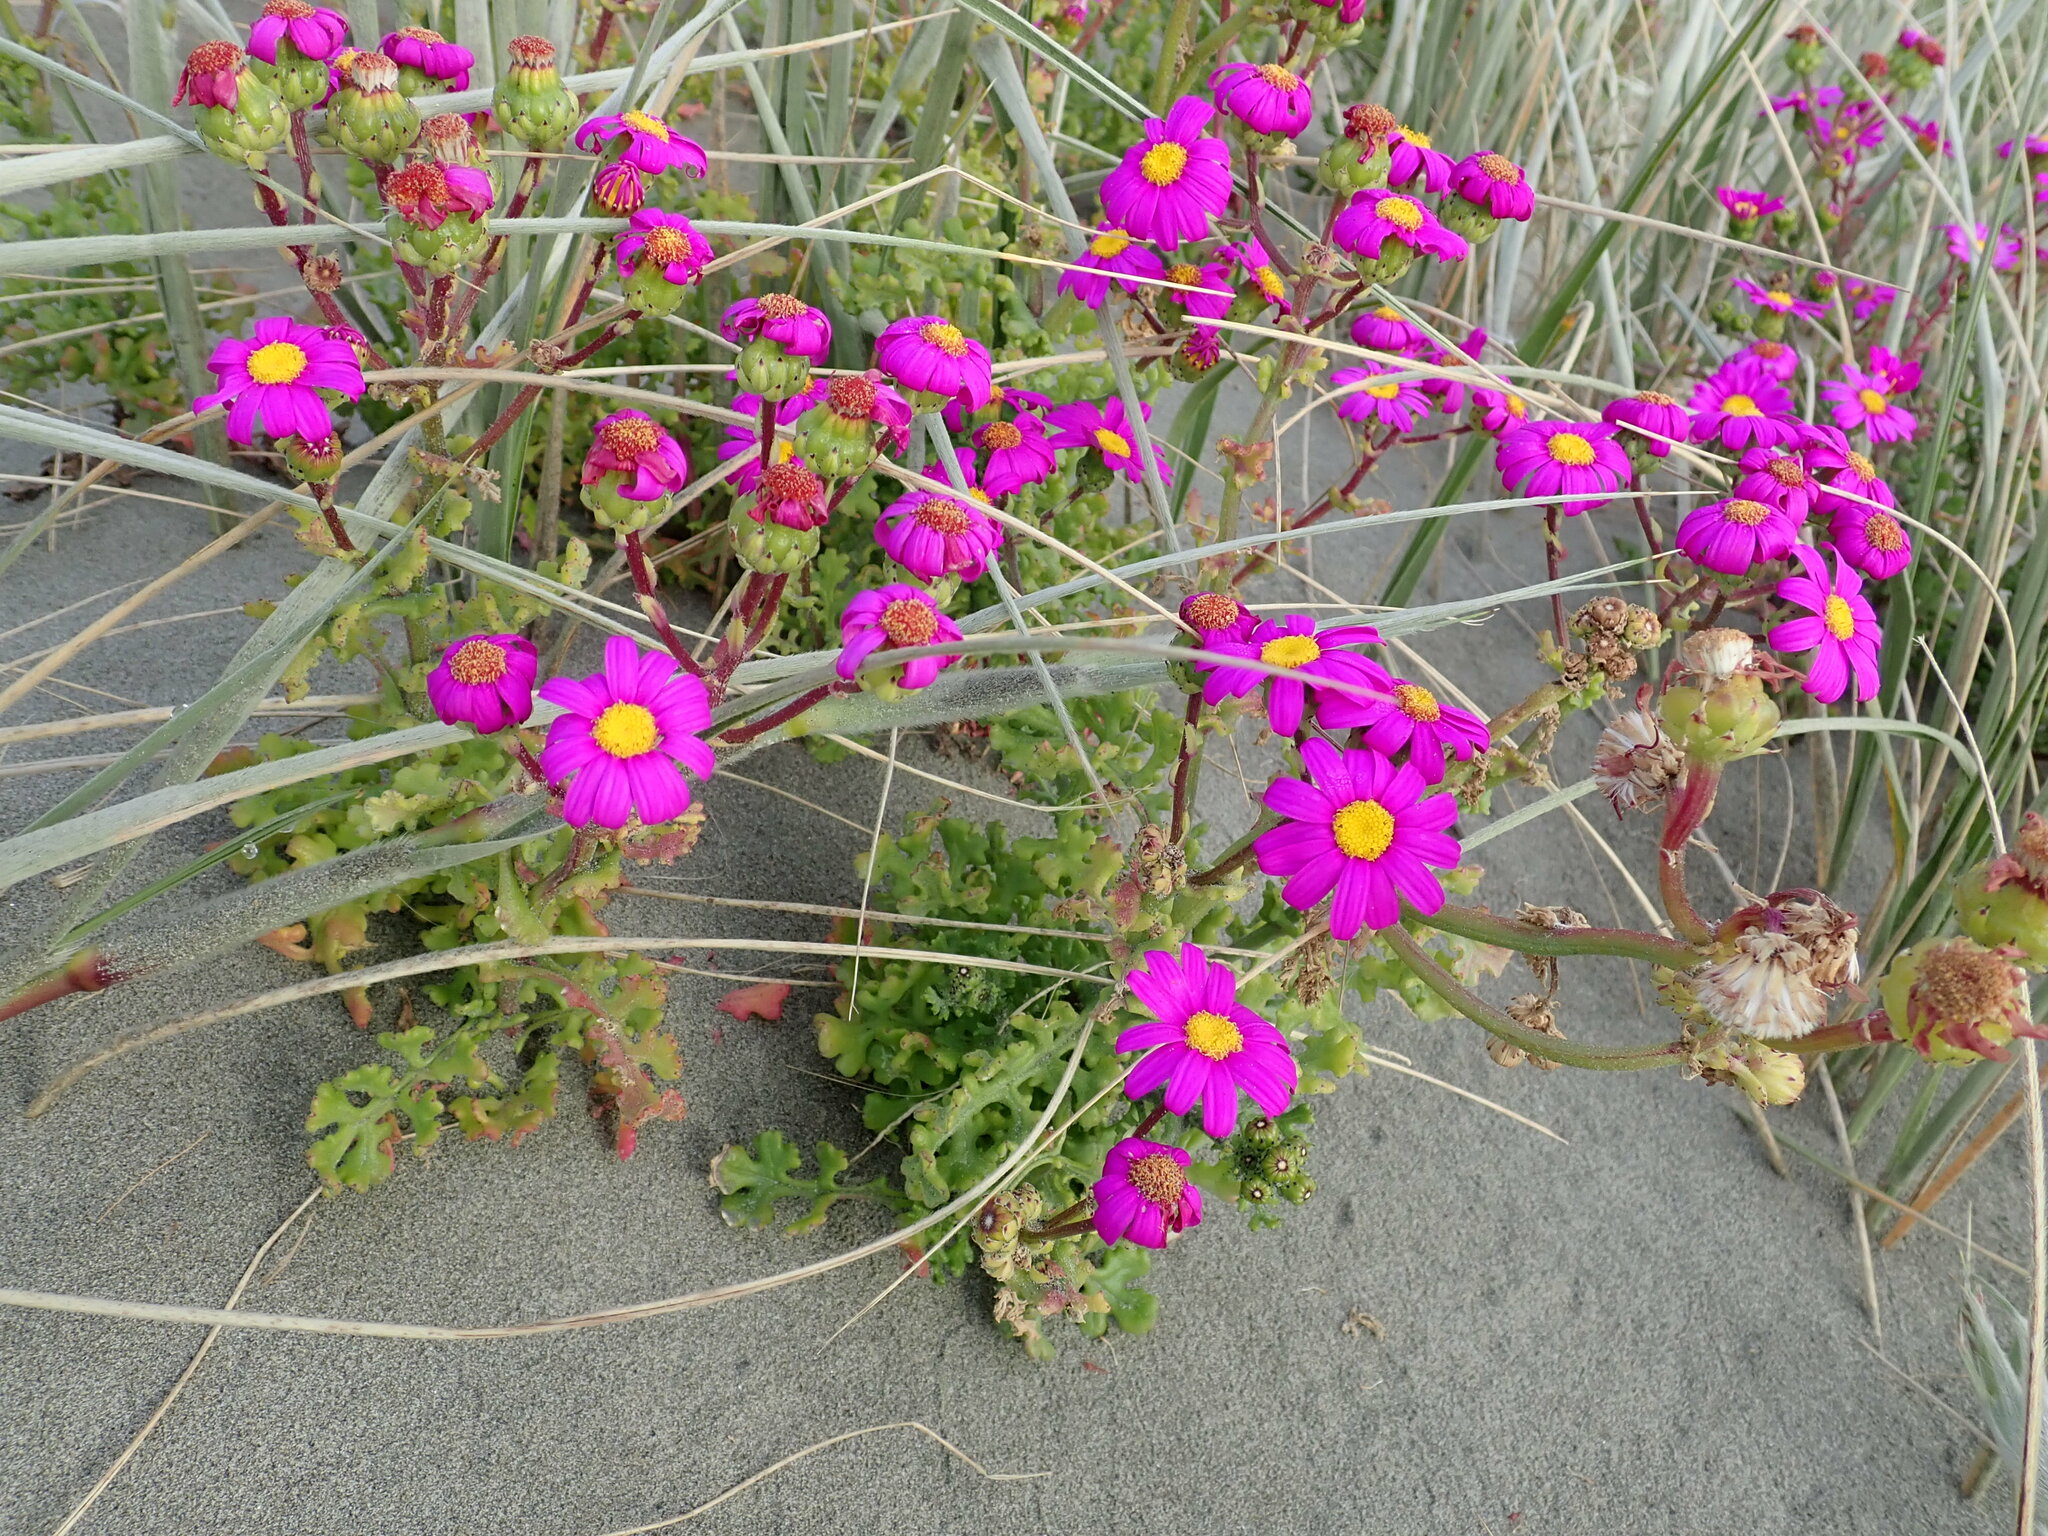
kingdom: Plantae
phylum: Tracheophyta
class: Magnoliopsida
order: Asterales
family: Asteraceae
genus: Senecio
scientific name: Senecio elegans
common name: Purple groundsel
